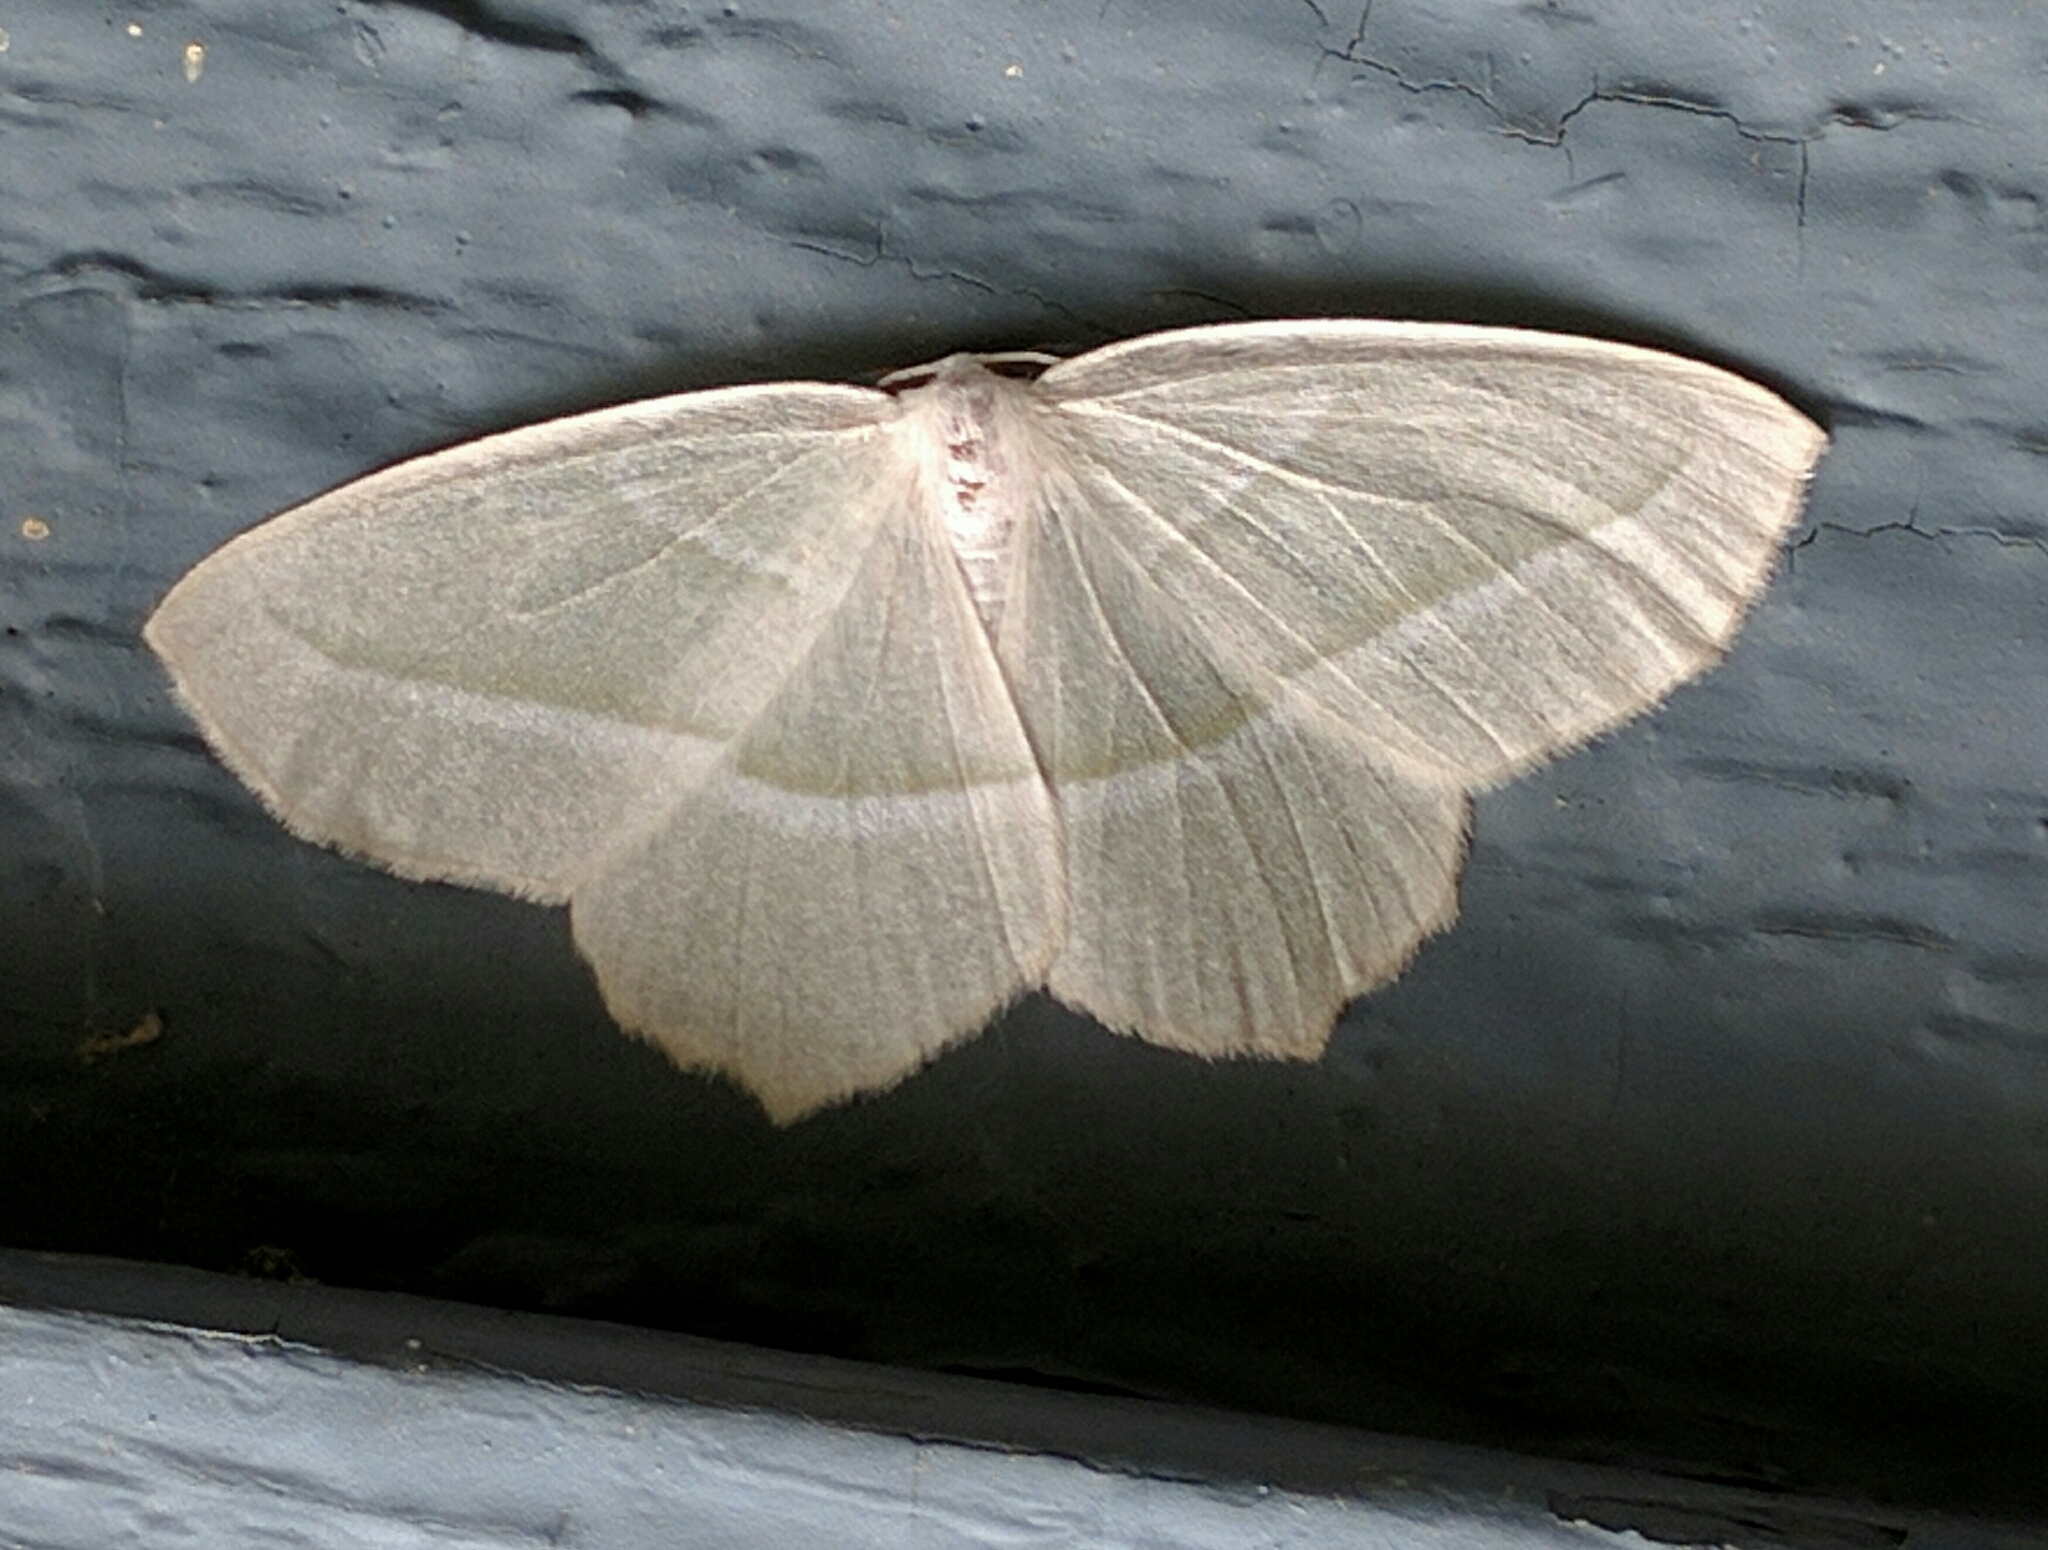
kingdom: Animalia
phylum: Arthropoda
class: Insecta
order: Lepidoptera
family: Geometridae
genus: Campaea
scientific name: Campaea perlata
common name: Fringed looper
